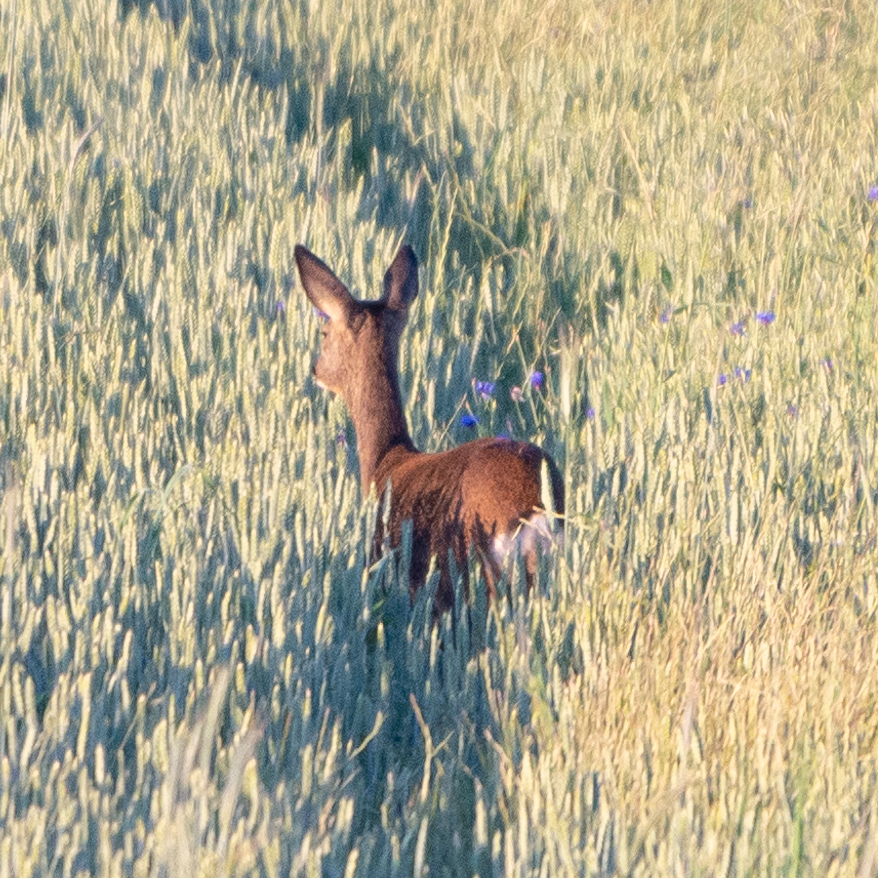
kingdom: Animalia
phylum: Chordata
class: Mammalia
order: Artiodactyla
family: Cervidae
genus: Capreolus
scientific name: Capreolus capreolus
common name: Western roe deer
